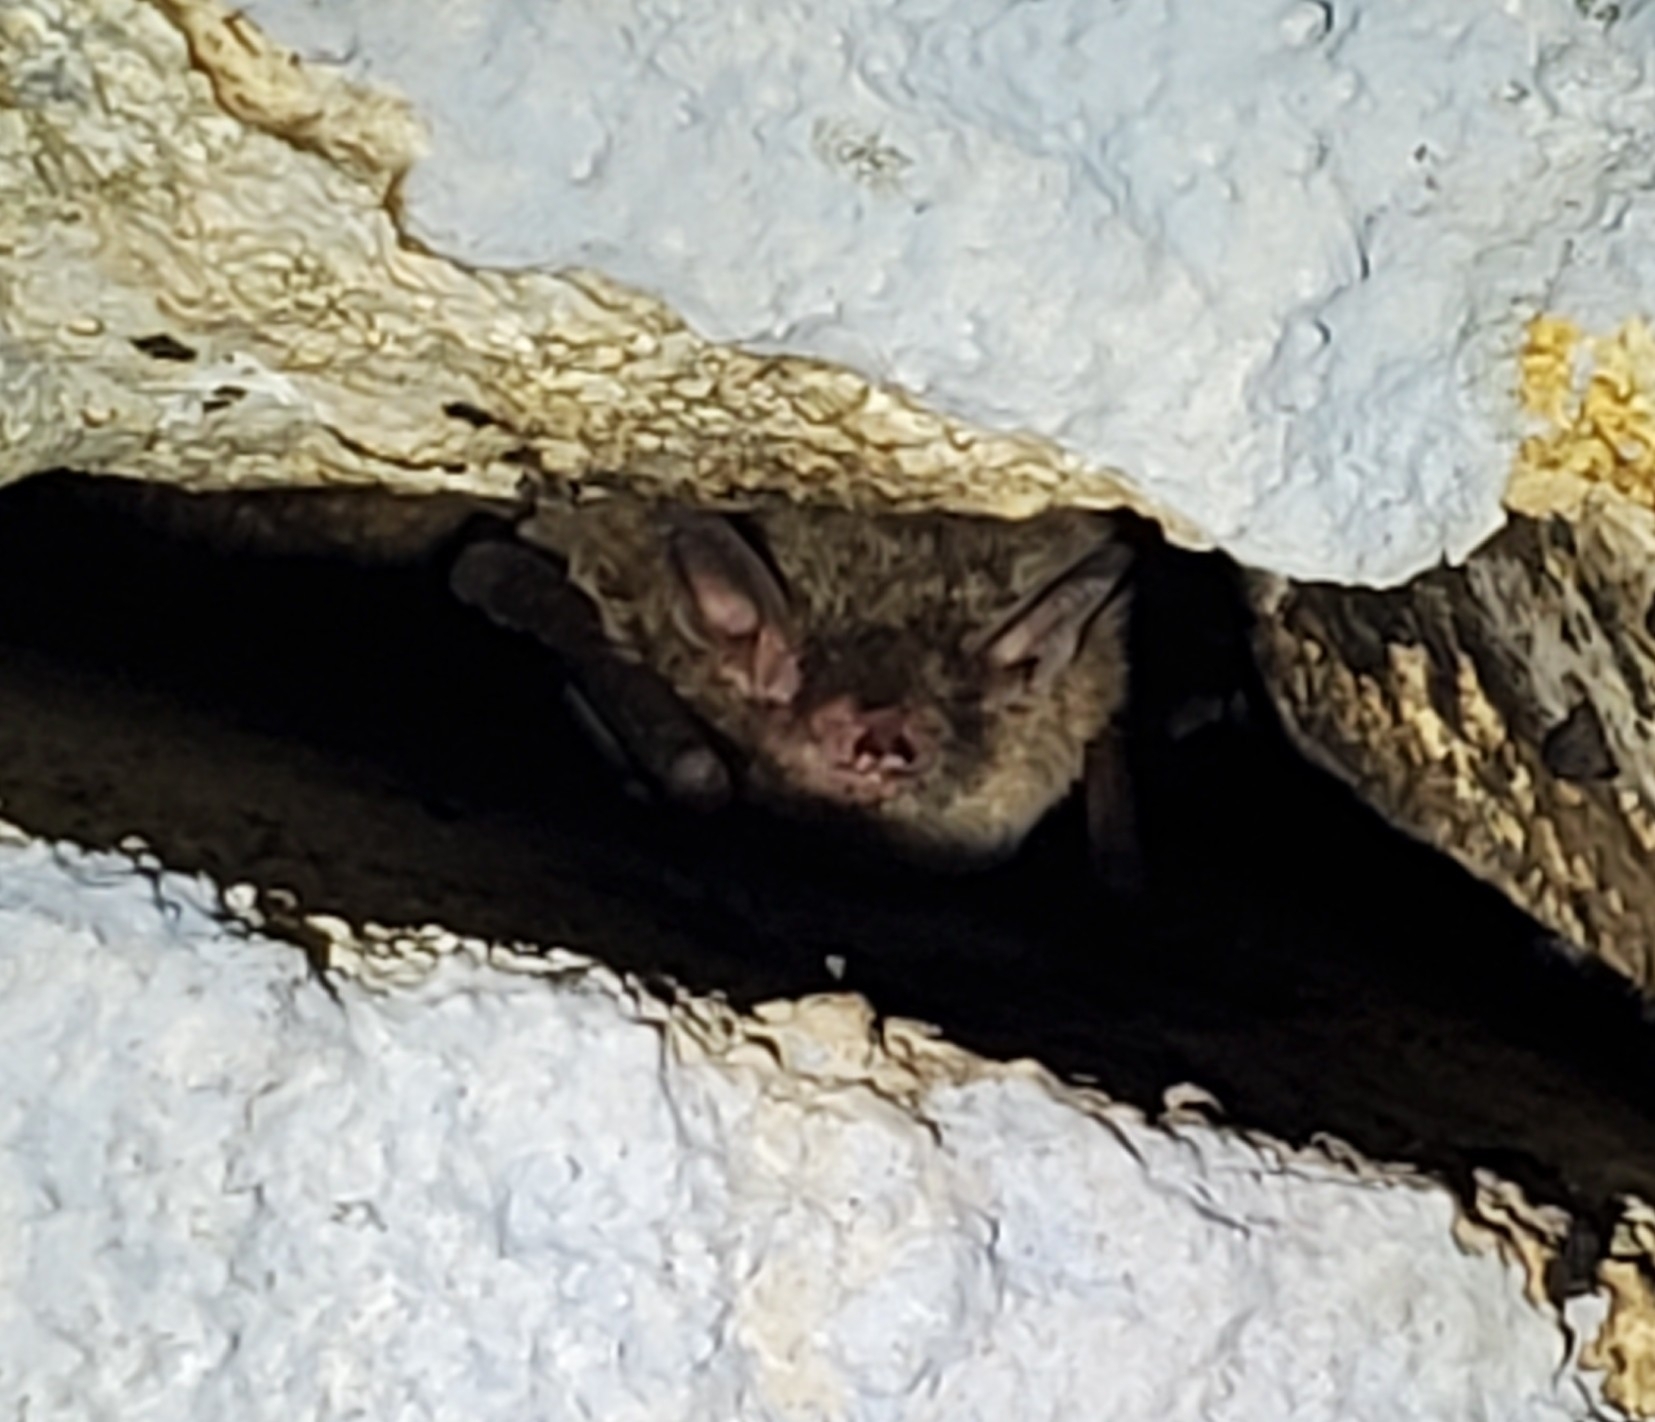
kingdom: Animalia
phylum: Chordata
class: Mammalia
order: Chiroptera
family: Vespertilionidae
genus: Myotis
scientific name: Myotis austroriparius
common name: Southeastern myotis
